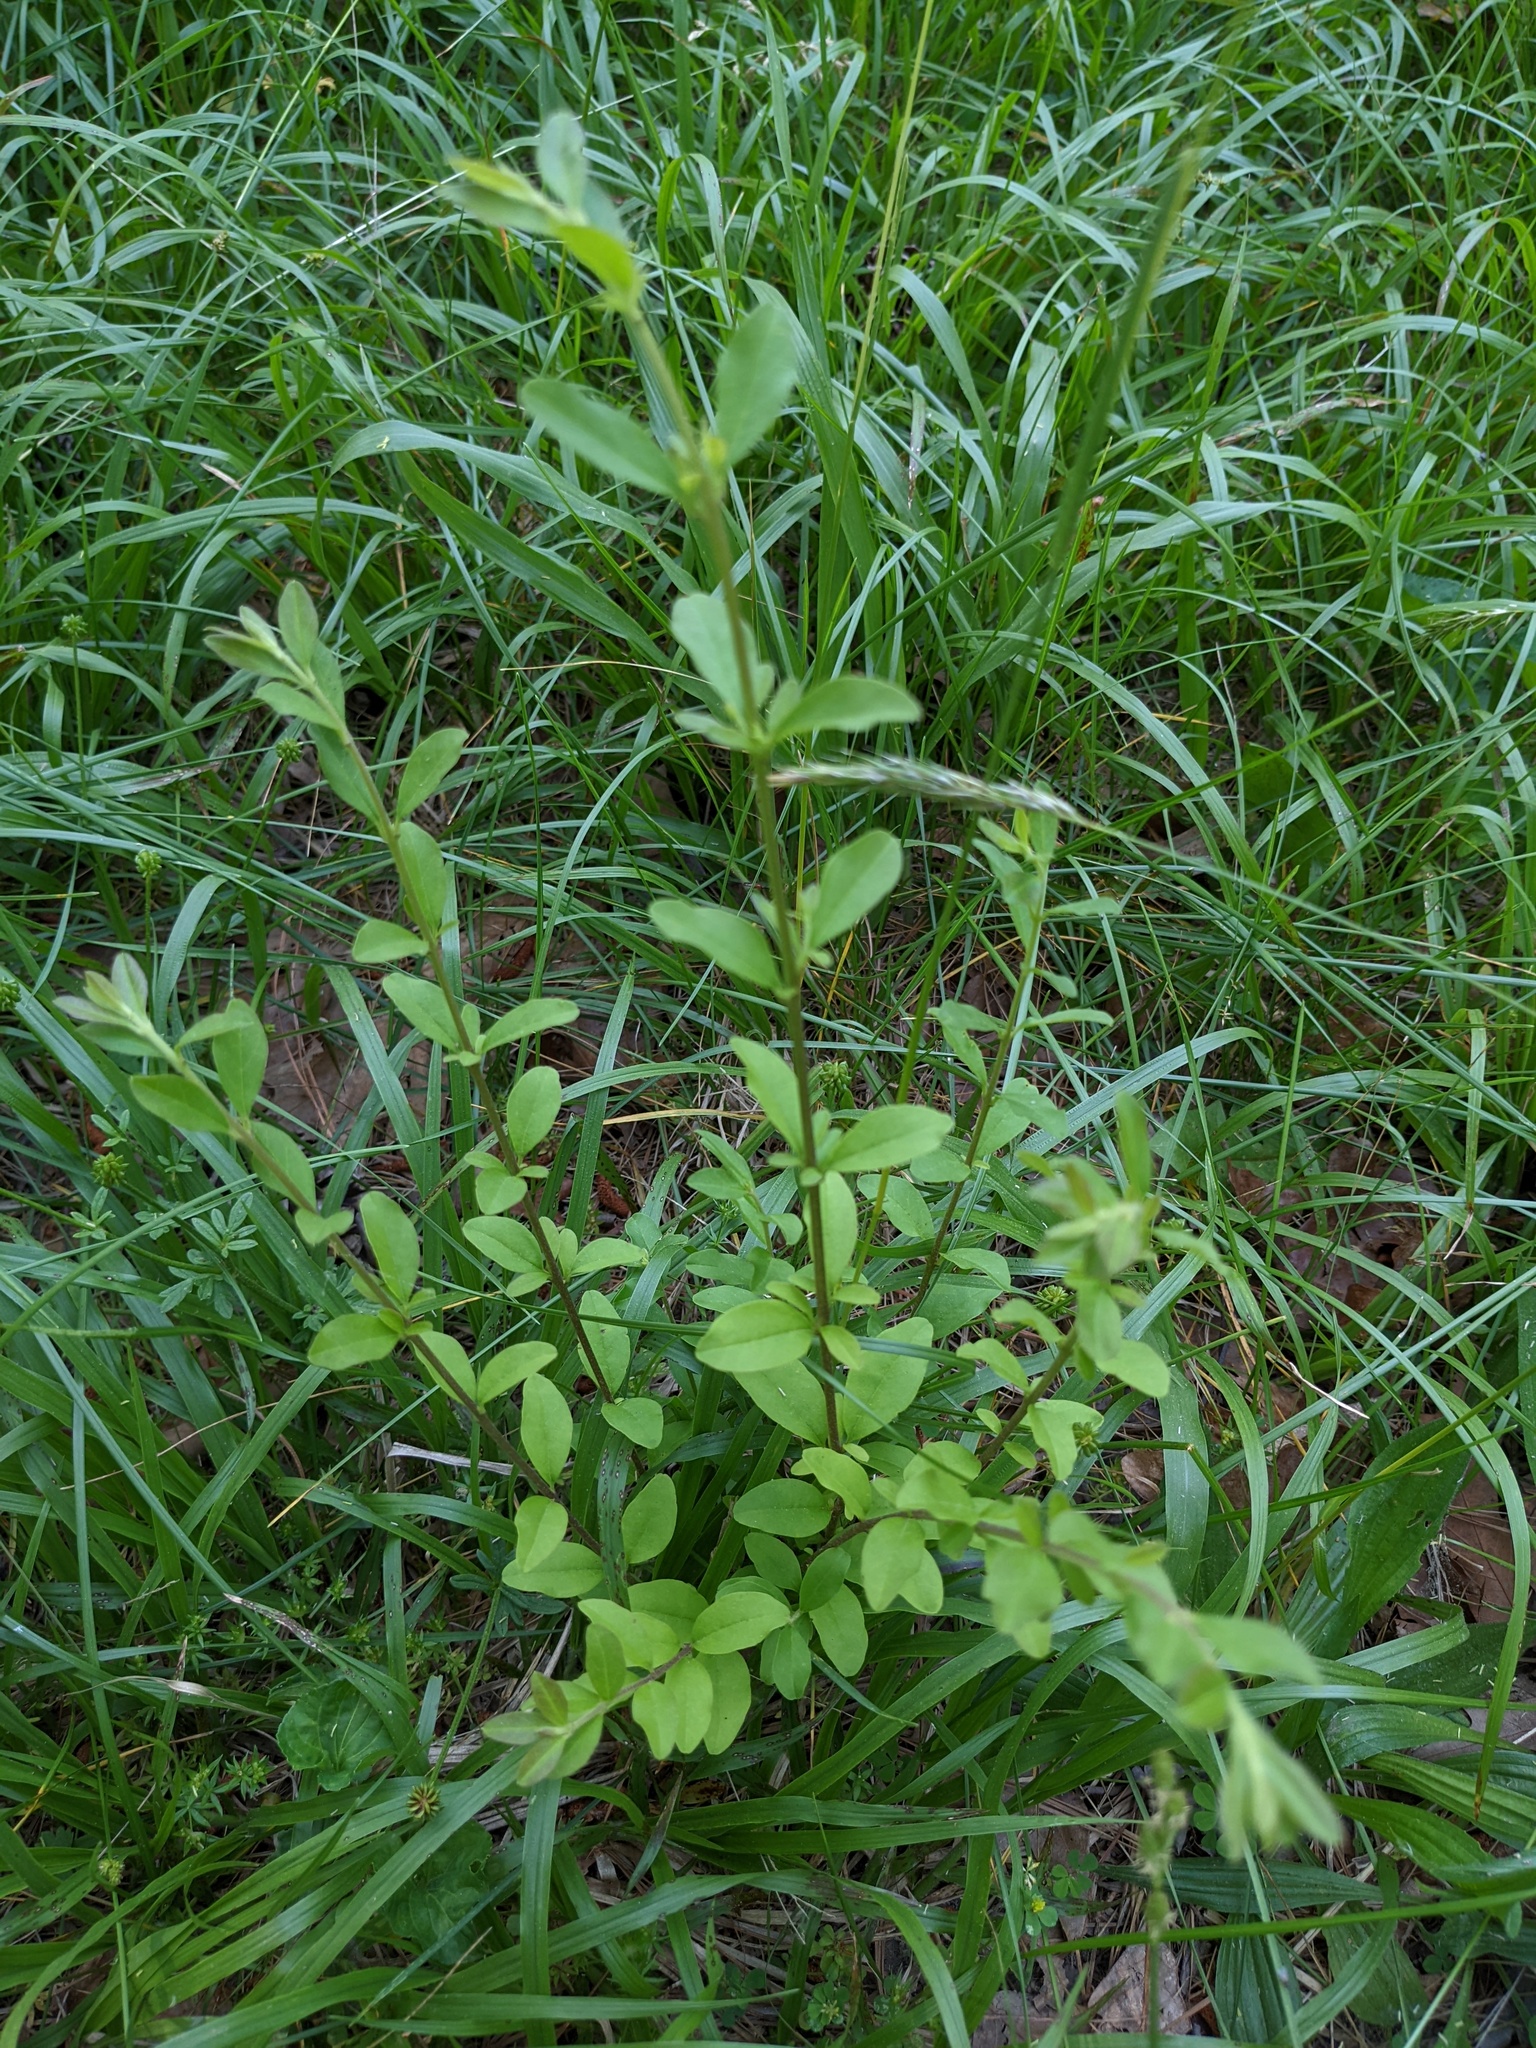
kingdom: Plantae
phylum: Tracheophyta
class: Magnoliopsida
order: Lamiales
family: Oleaceae
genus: Ligustrum
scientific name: Ligustrum
